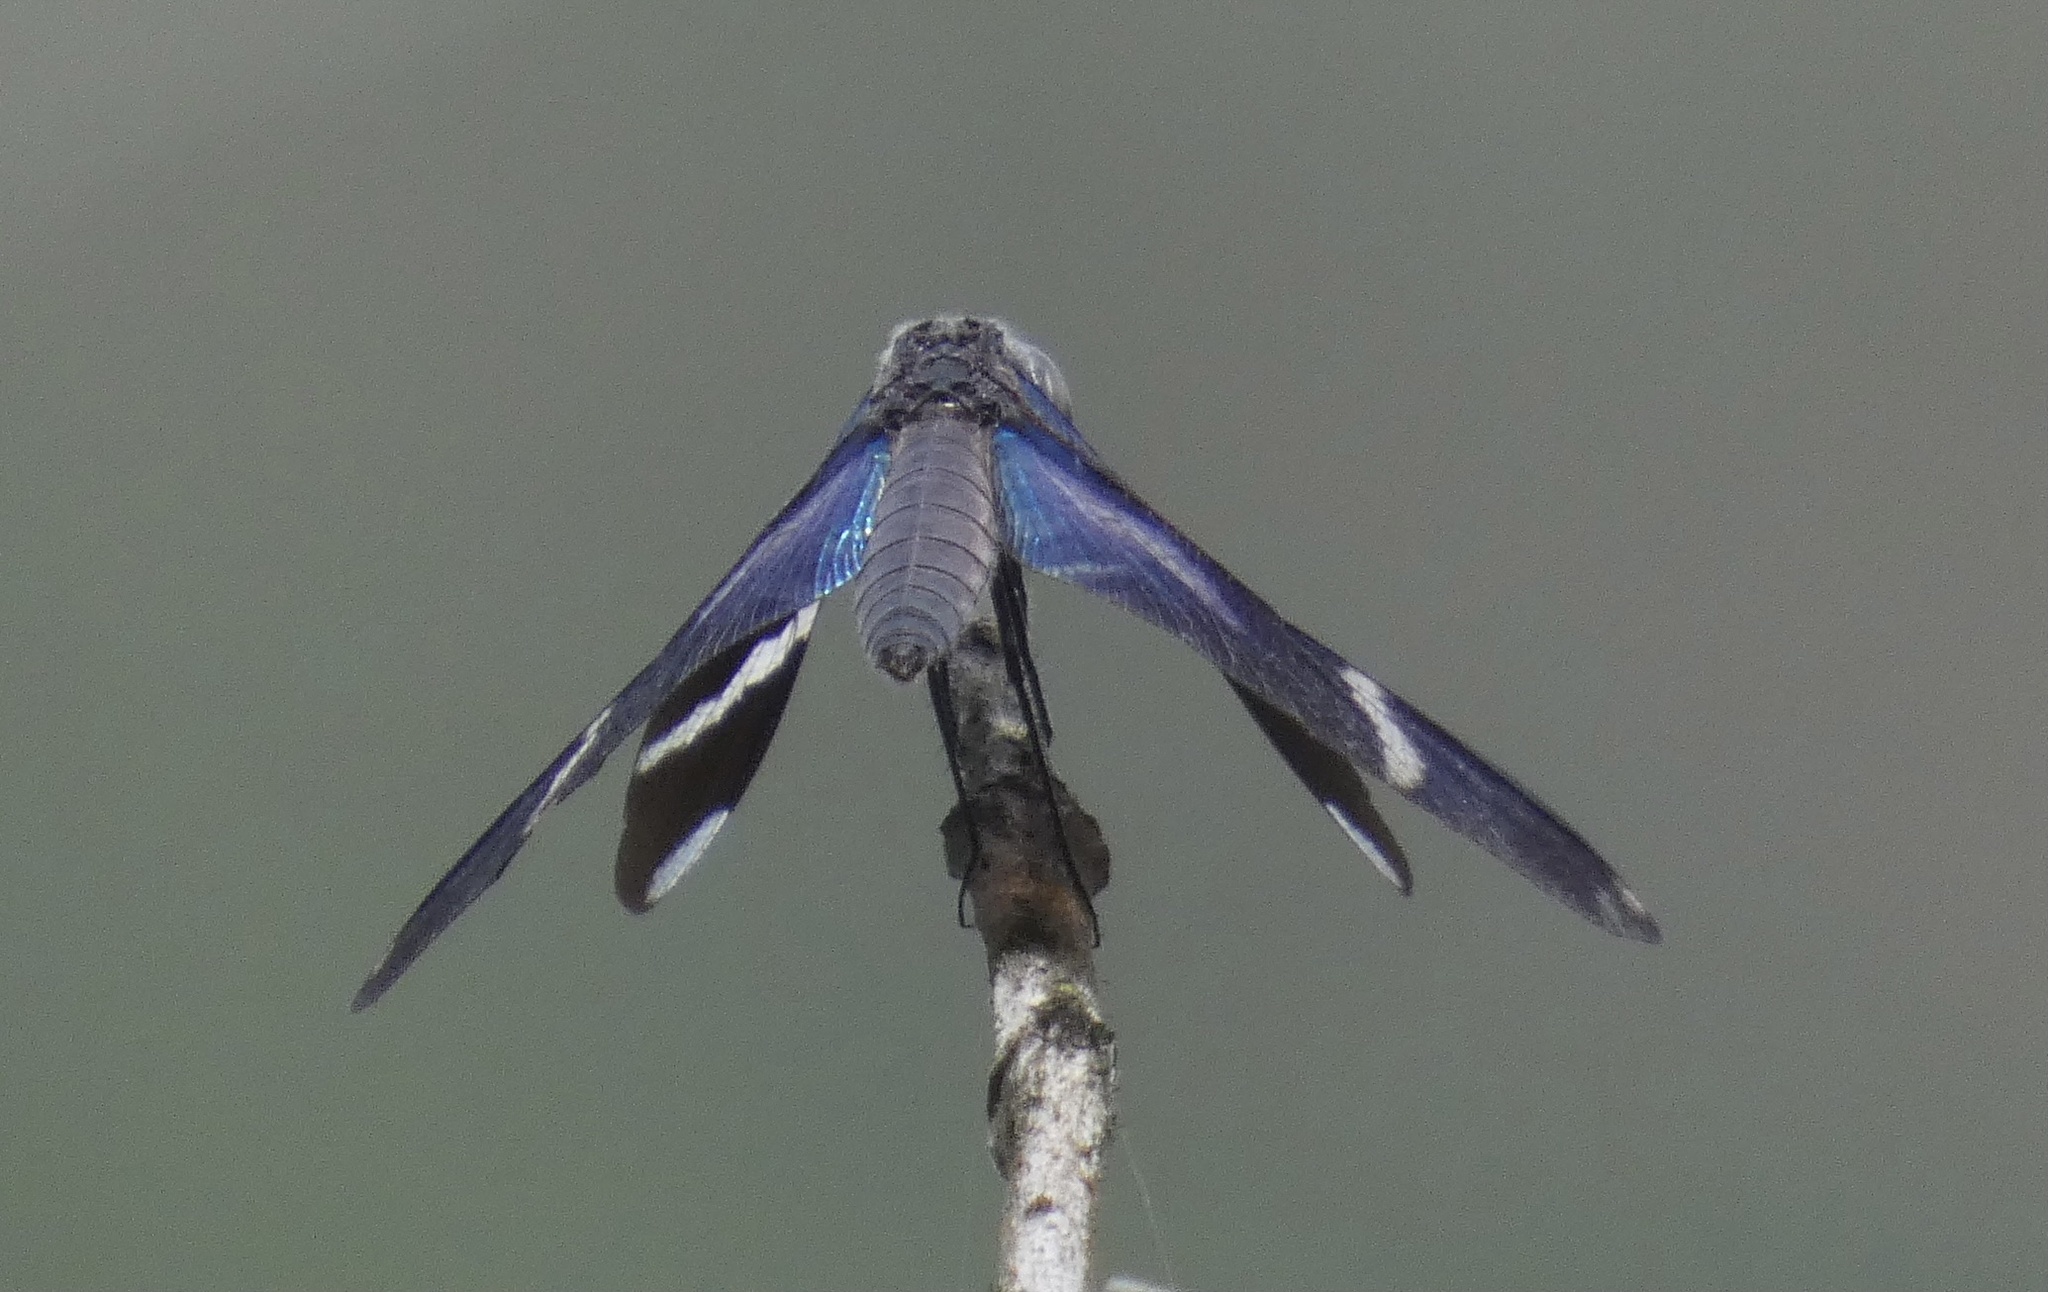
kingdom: Animalia
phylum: Arthropoda
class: Insecta
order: Odonata
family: Libellulidae
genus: Zenithoptera
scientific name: Zenithoptera lanei
